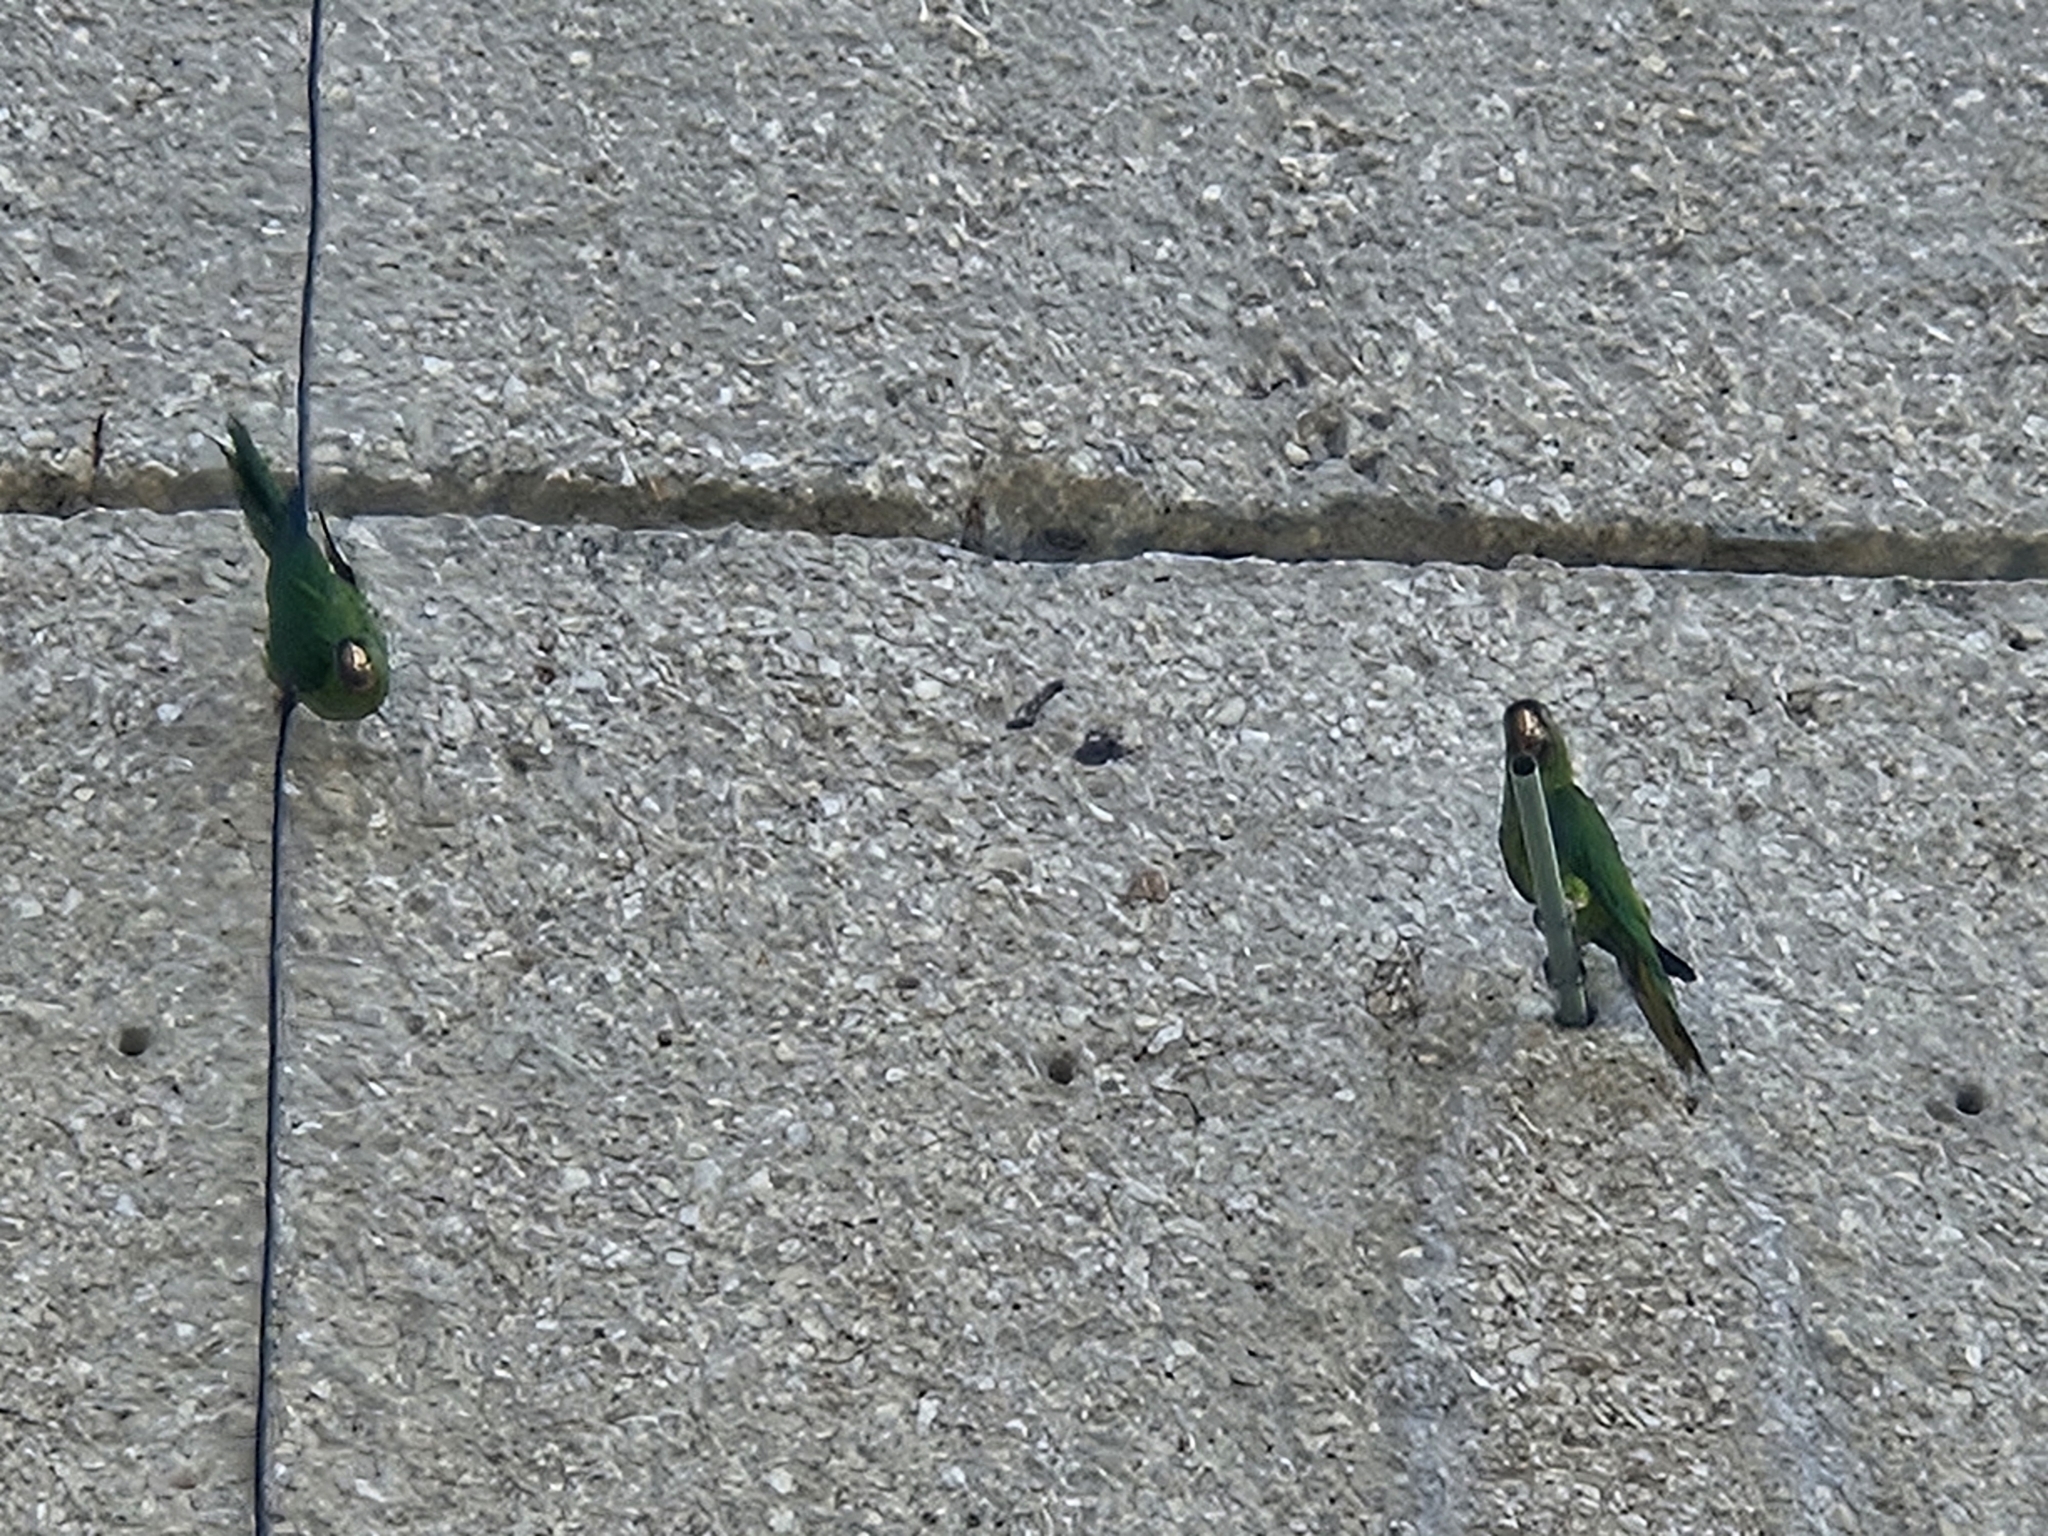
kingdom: Animalia
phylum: Chordata
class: Aves
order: Psittaciformes
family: Psittacidae
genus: Aratinga
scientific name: Aratinga holochlora
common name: Green parakeet
